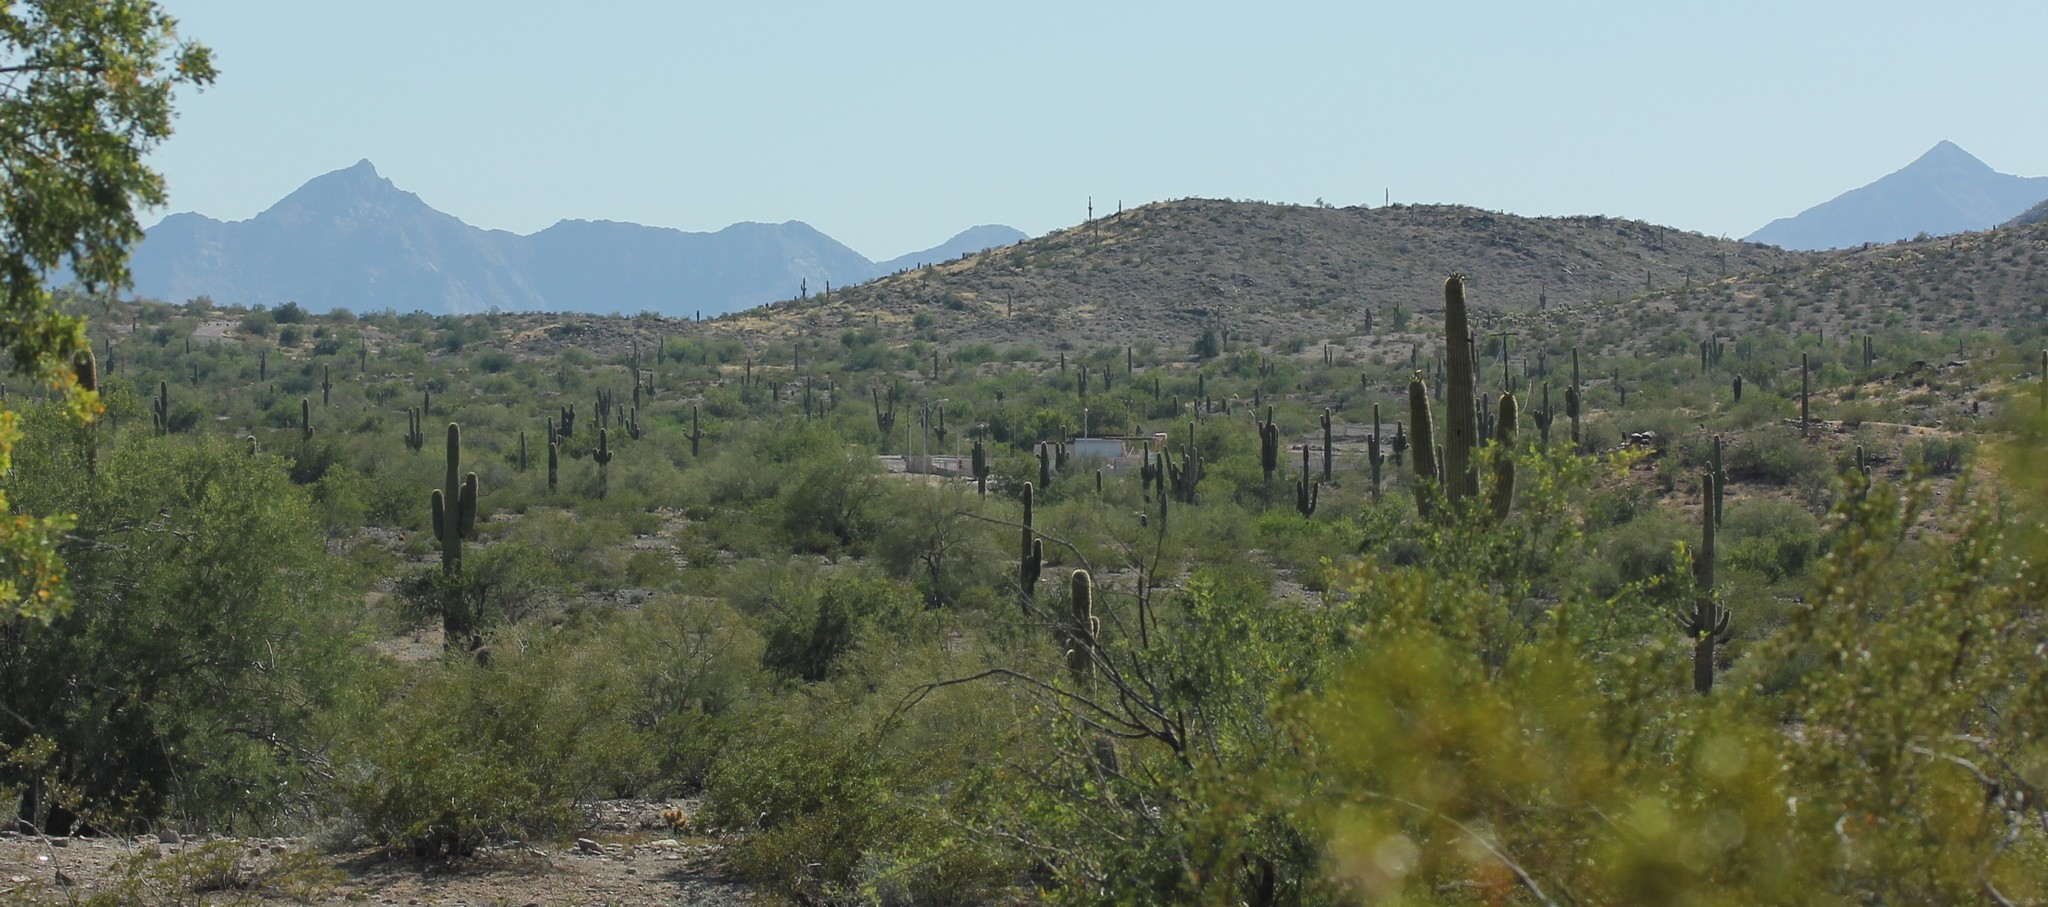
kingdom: Plantae
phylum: Tracheophyta
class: Magnoliopsida
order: Caryophyllales
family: Cactaceae
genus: Carnegiea
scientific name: Carnegiea gigantea
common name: Saguaro
